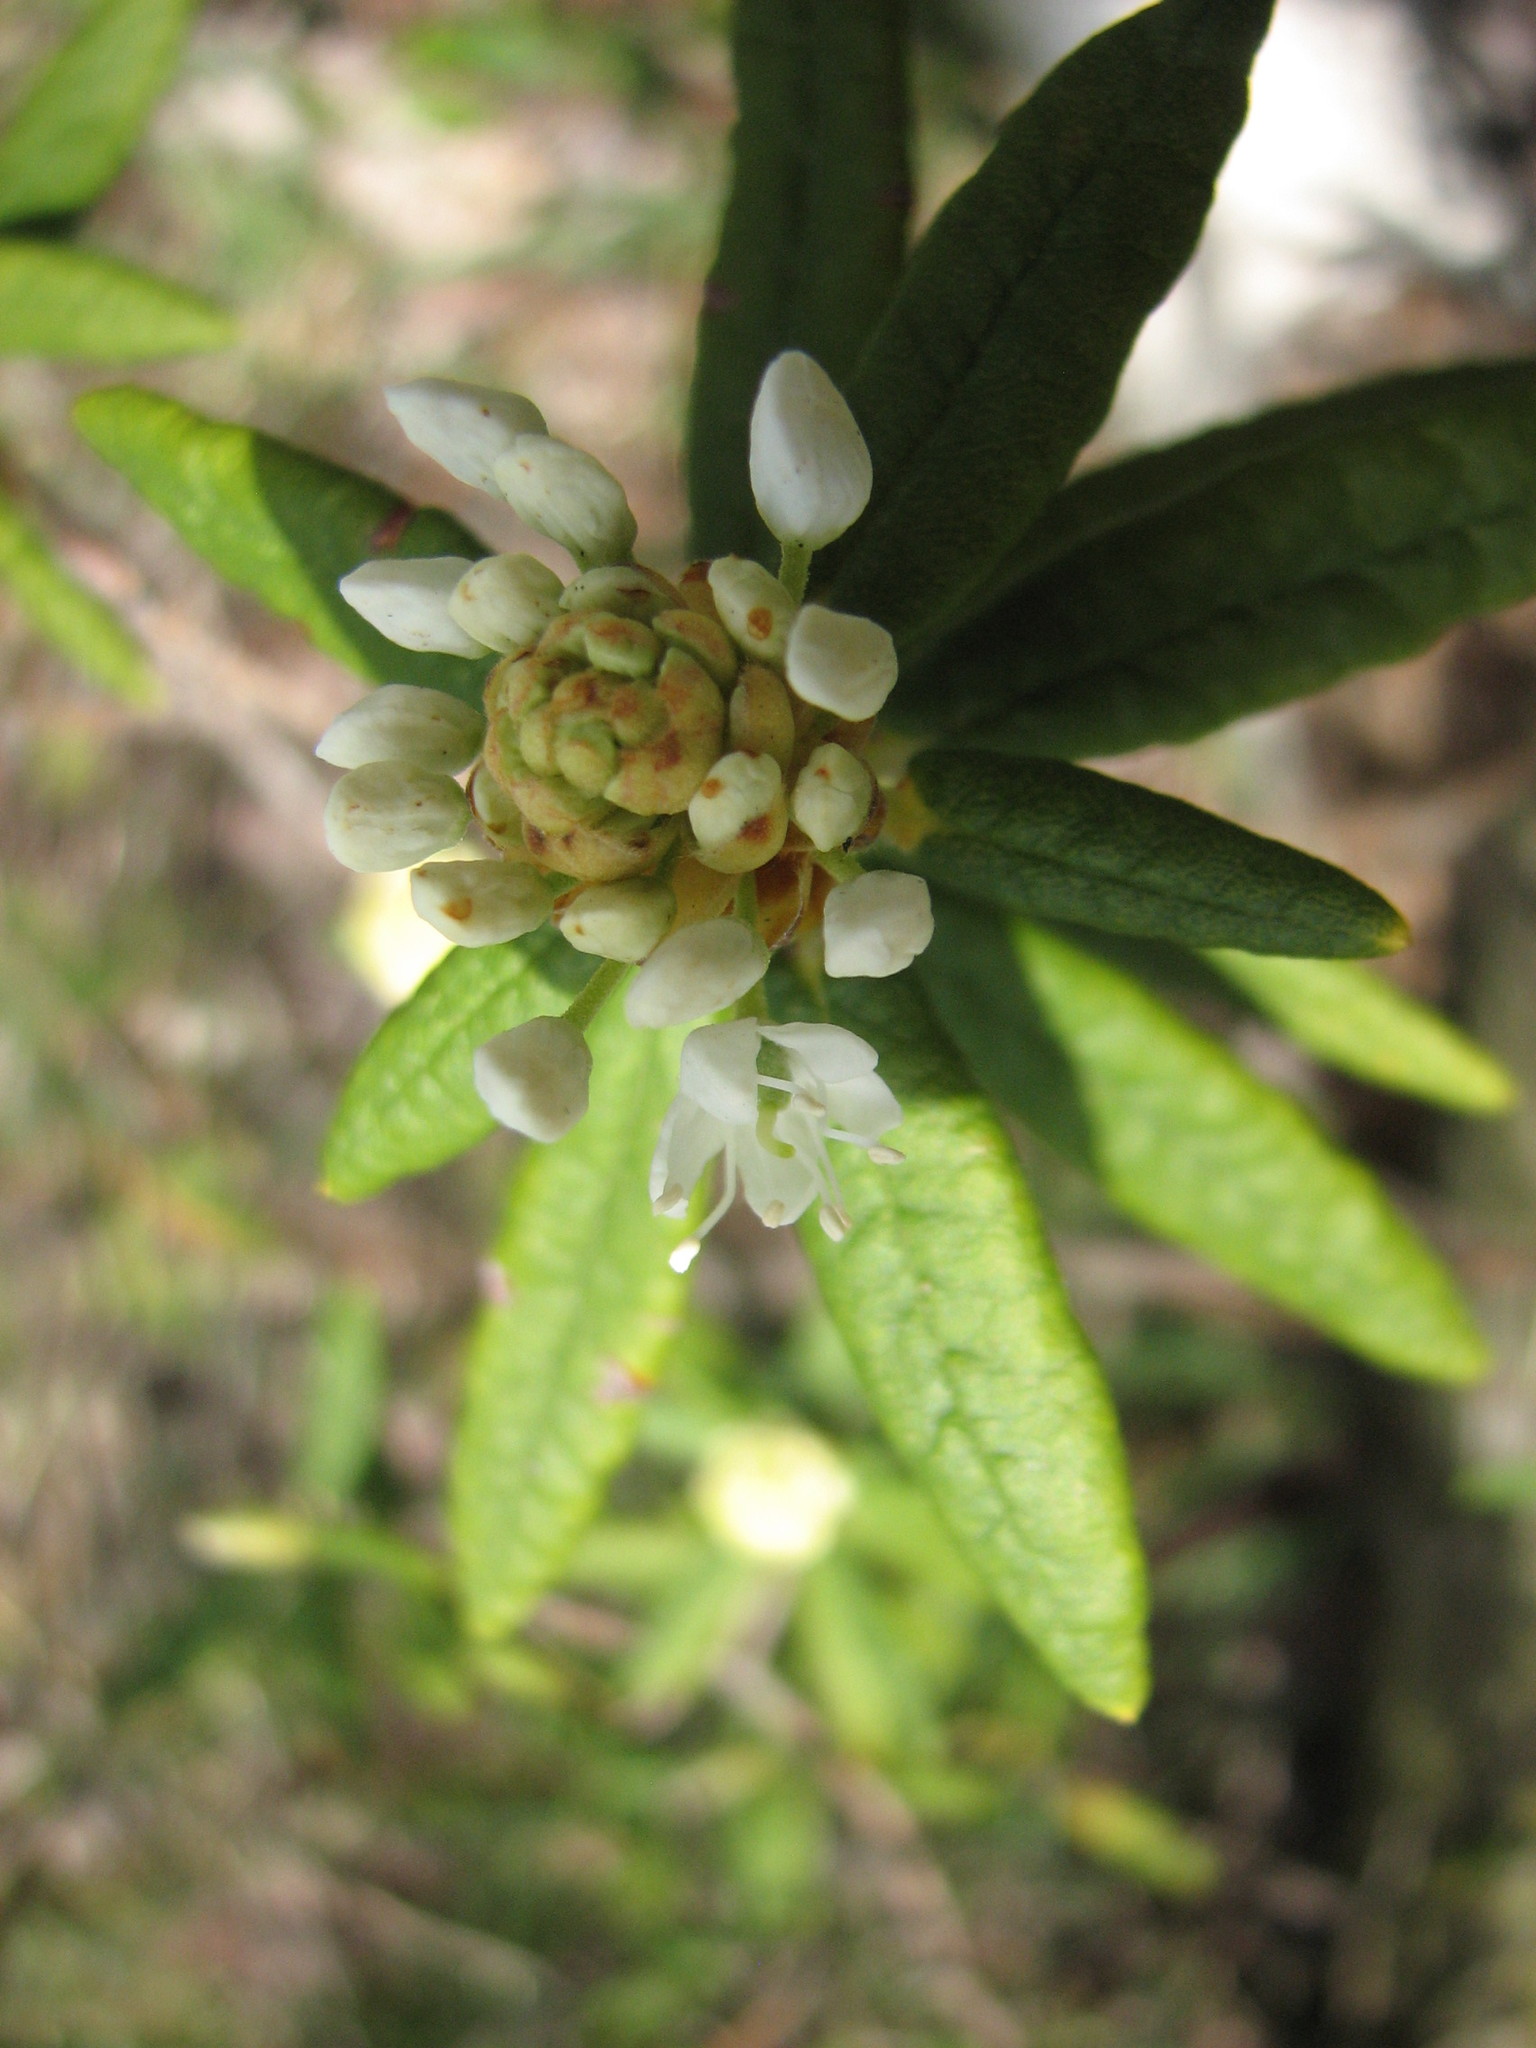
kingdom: Plantae
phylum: Tracheophyta
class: Magnoliopsida
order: Ericales
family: Ericaceae
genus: Rhododendron
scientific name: Rhododendron groenlandicum
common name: Bog labrador tea
